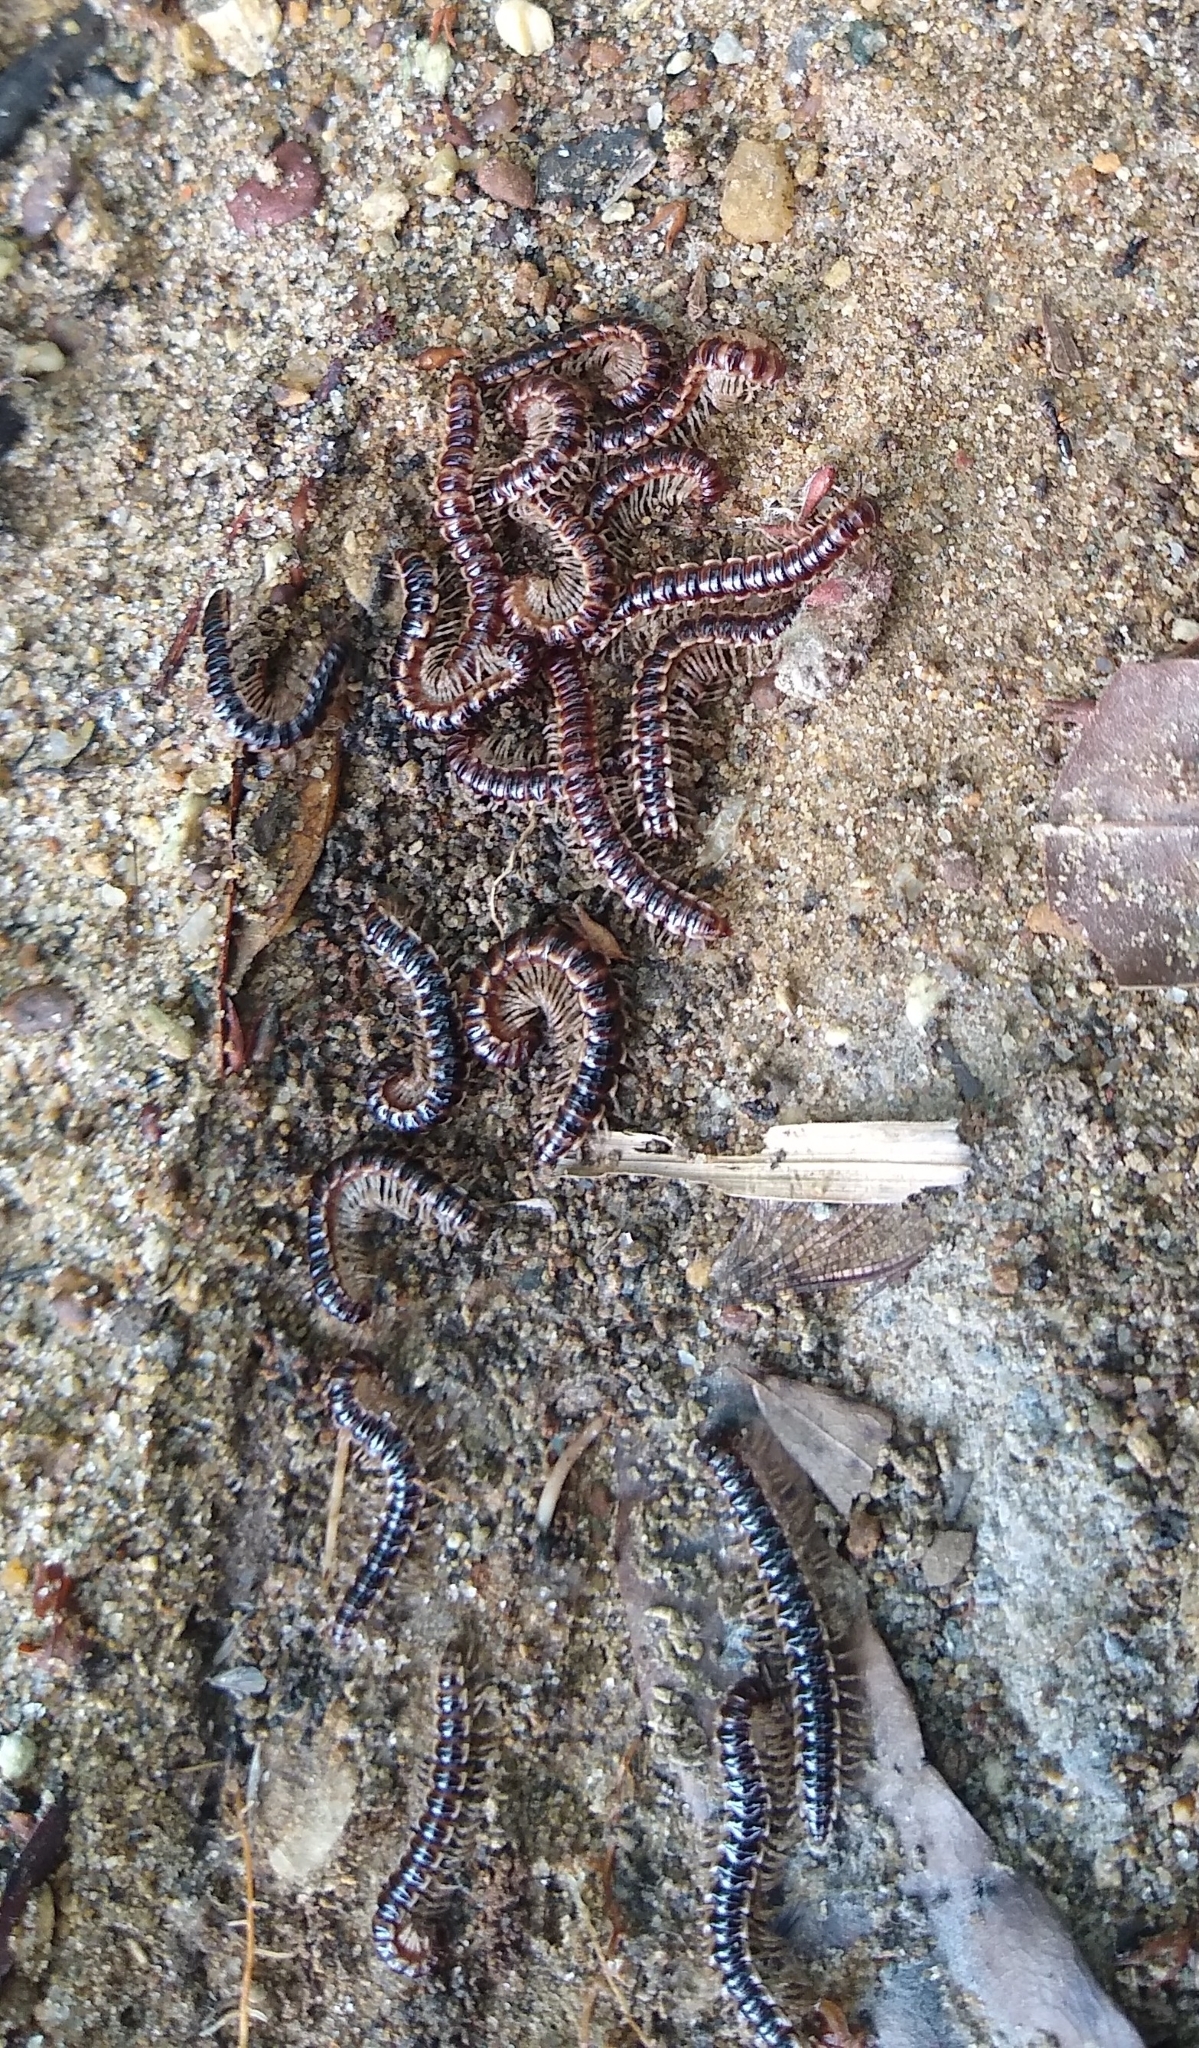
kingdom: Animalia
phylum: Arthropoda
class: Diplopoda
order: Polydesmida
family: Paradoxosomatidae
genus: Oxidus
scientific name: Oxidus gracilis
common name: Greenhouse millipede
